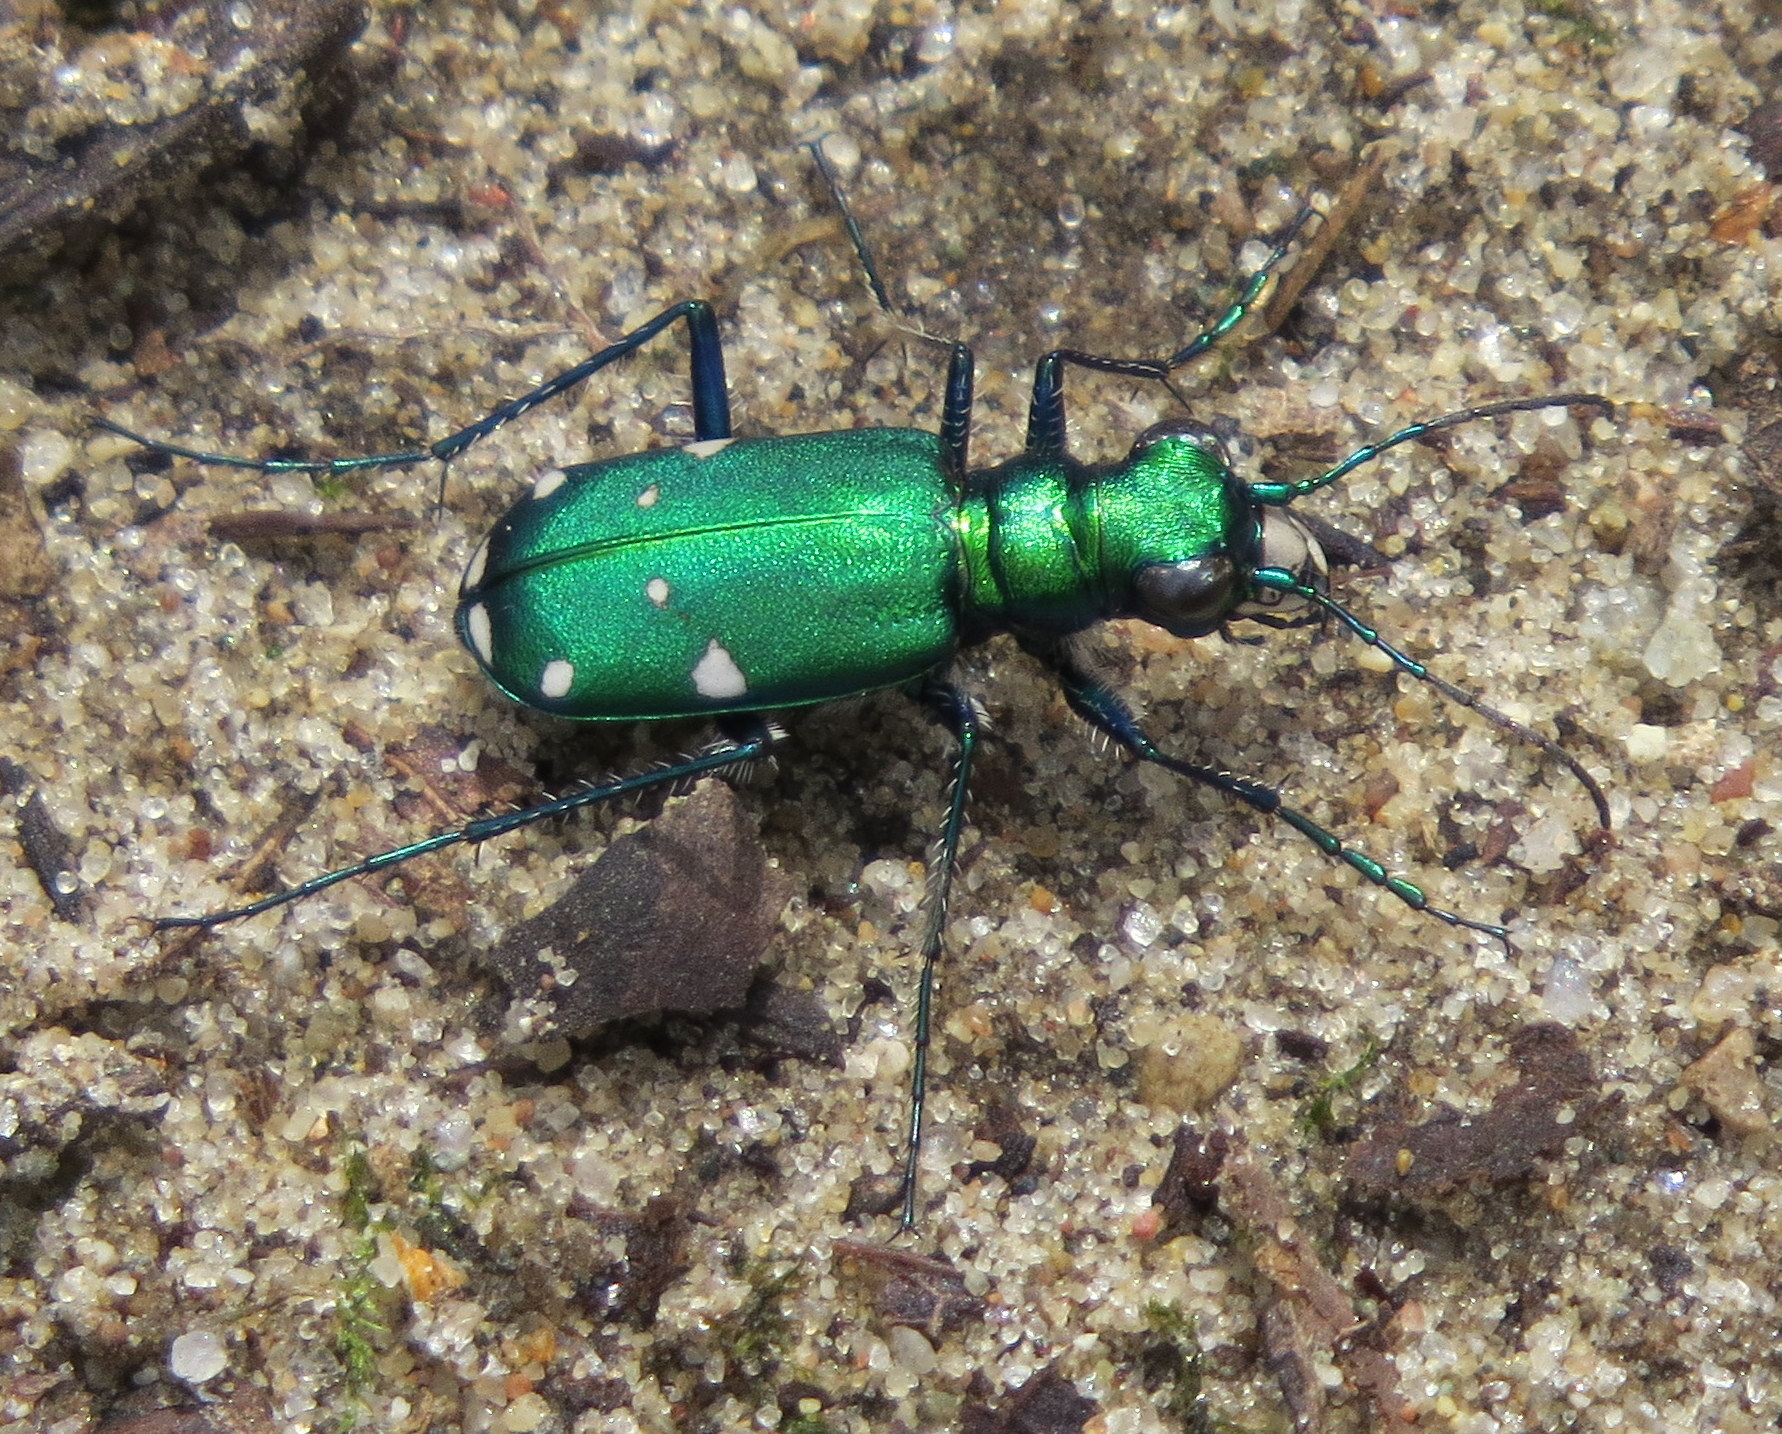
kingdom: Animalia
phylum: Arthropoda
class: Insecta
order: Coleoptera
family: Carabidae
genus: Cicindela
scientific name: Cicindela sexguttata
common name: Six-spotted tiger beetle
